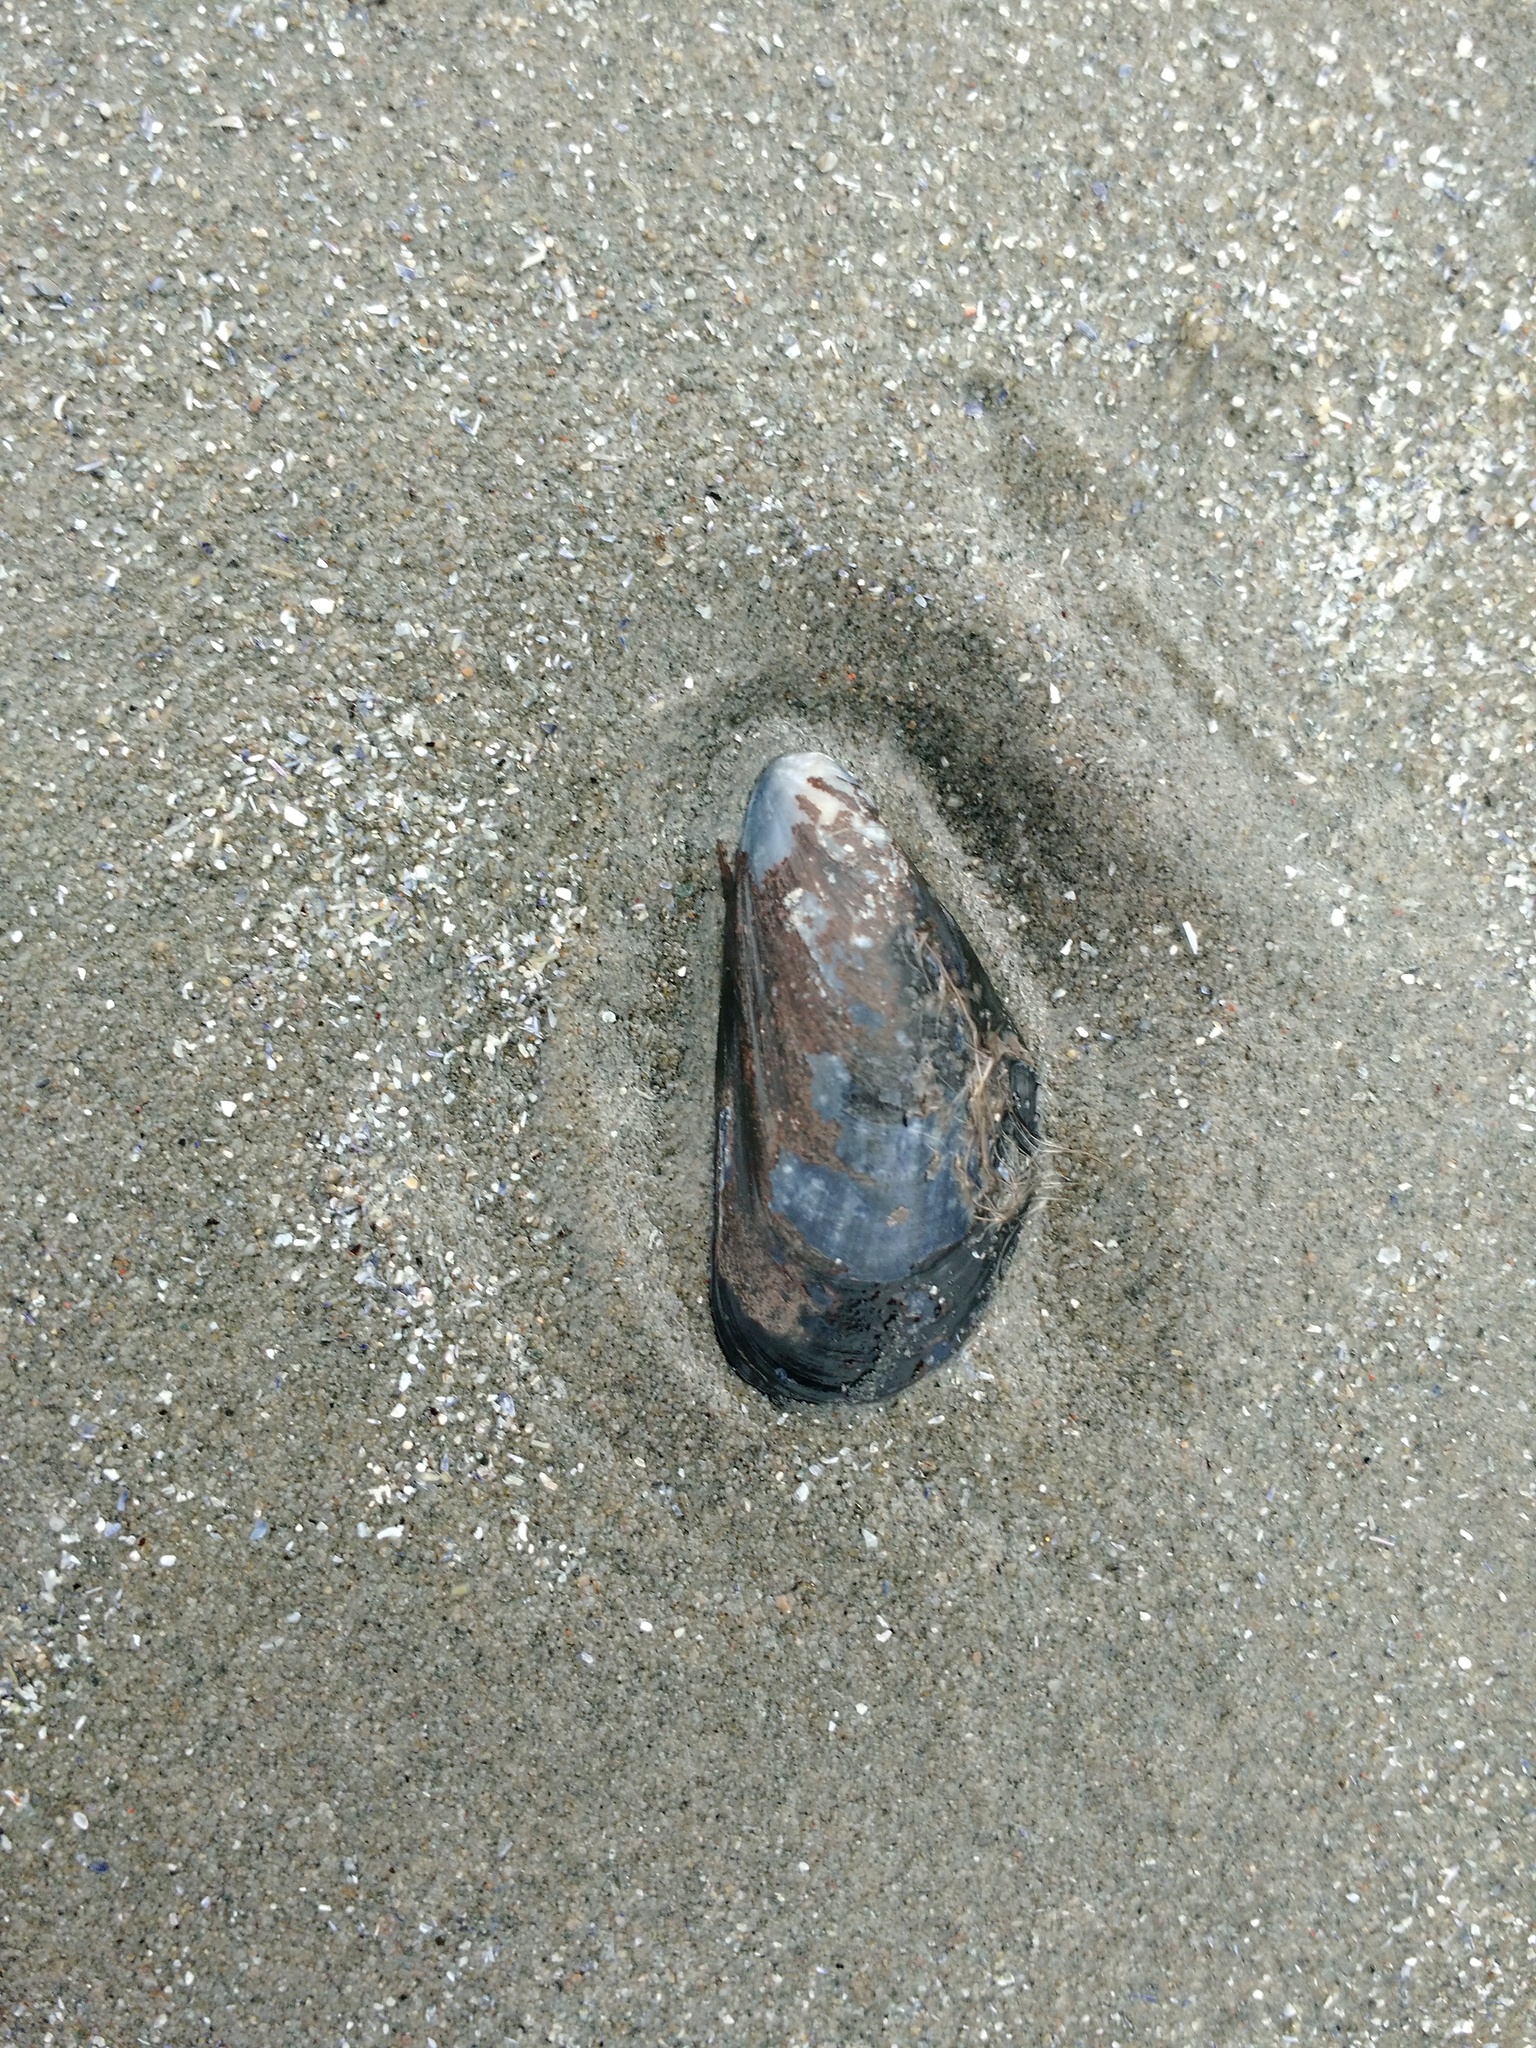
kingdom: Animalia
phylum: Mollusca
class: Bivalvia
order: Mytilida
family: Mytilidae
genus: Mytilus
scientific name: Mytilus edulis
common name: Blue mussel
